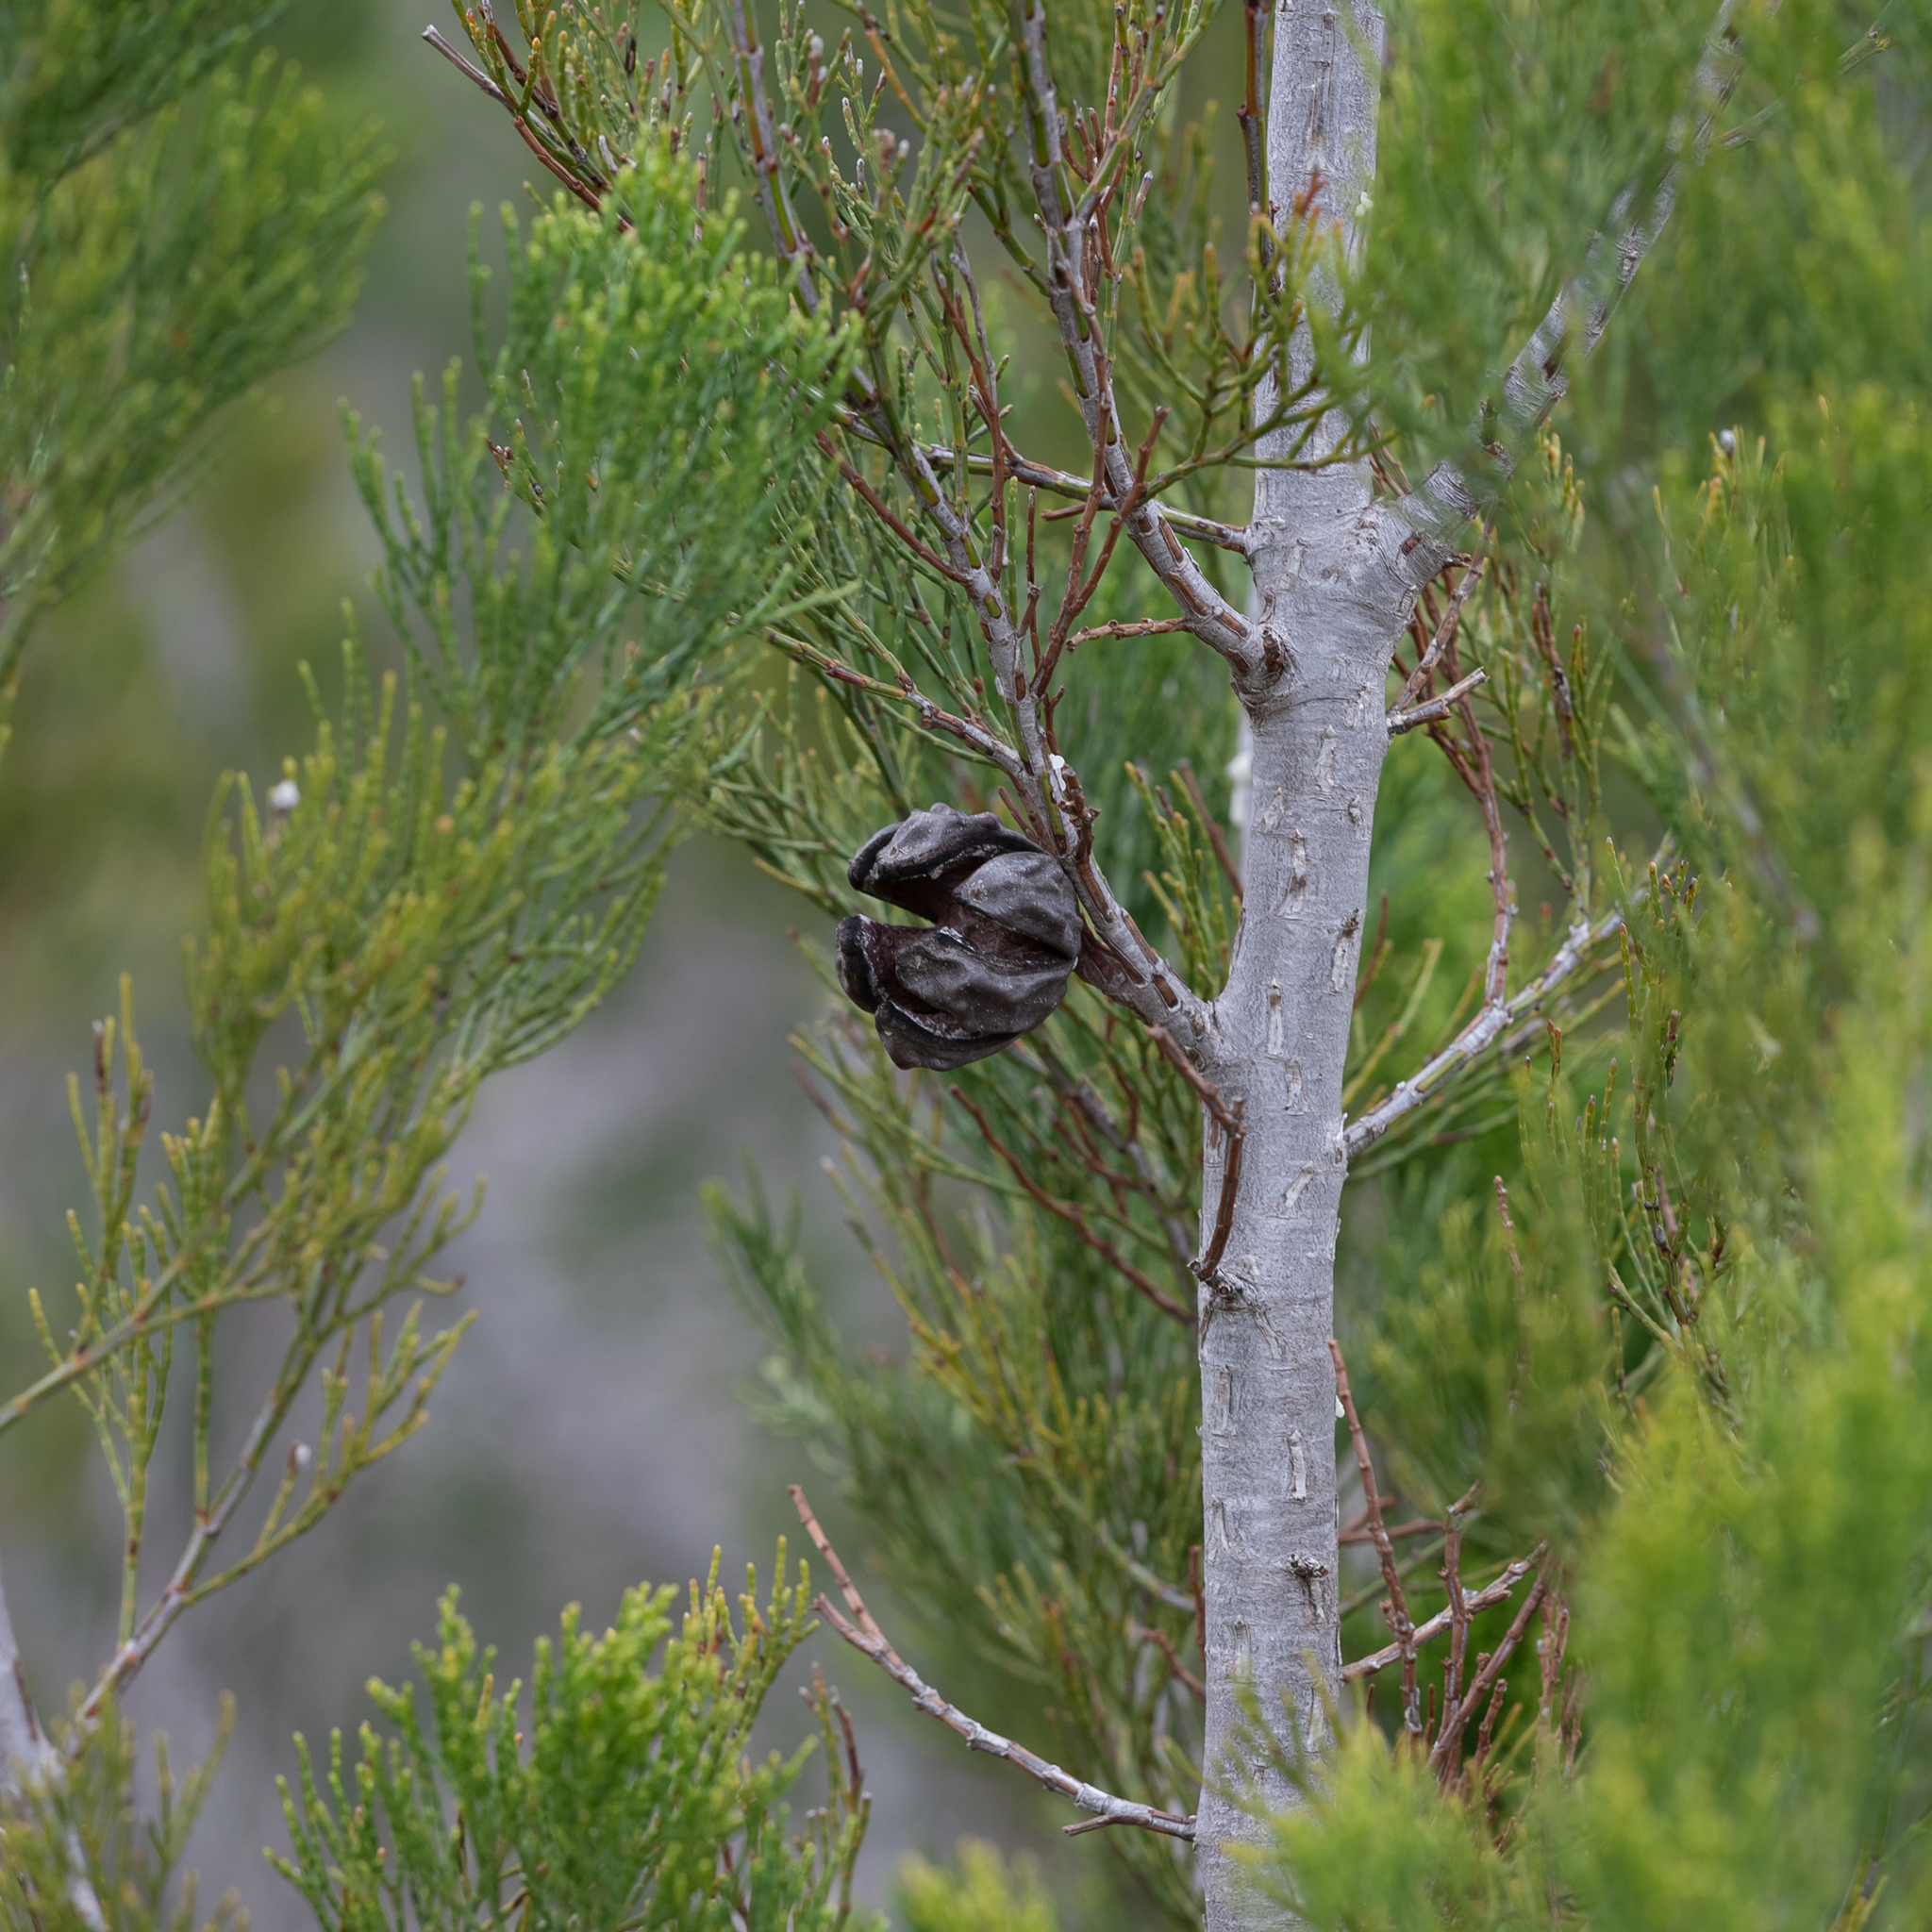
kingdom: Plantae
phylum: Tracheophyta
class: Pinopsida
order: Pinales
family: Cupressaceae
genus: Callitris
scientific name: Callitris preissii
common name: Mallee pine
